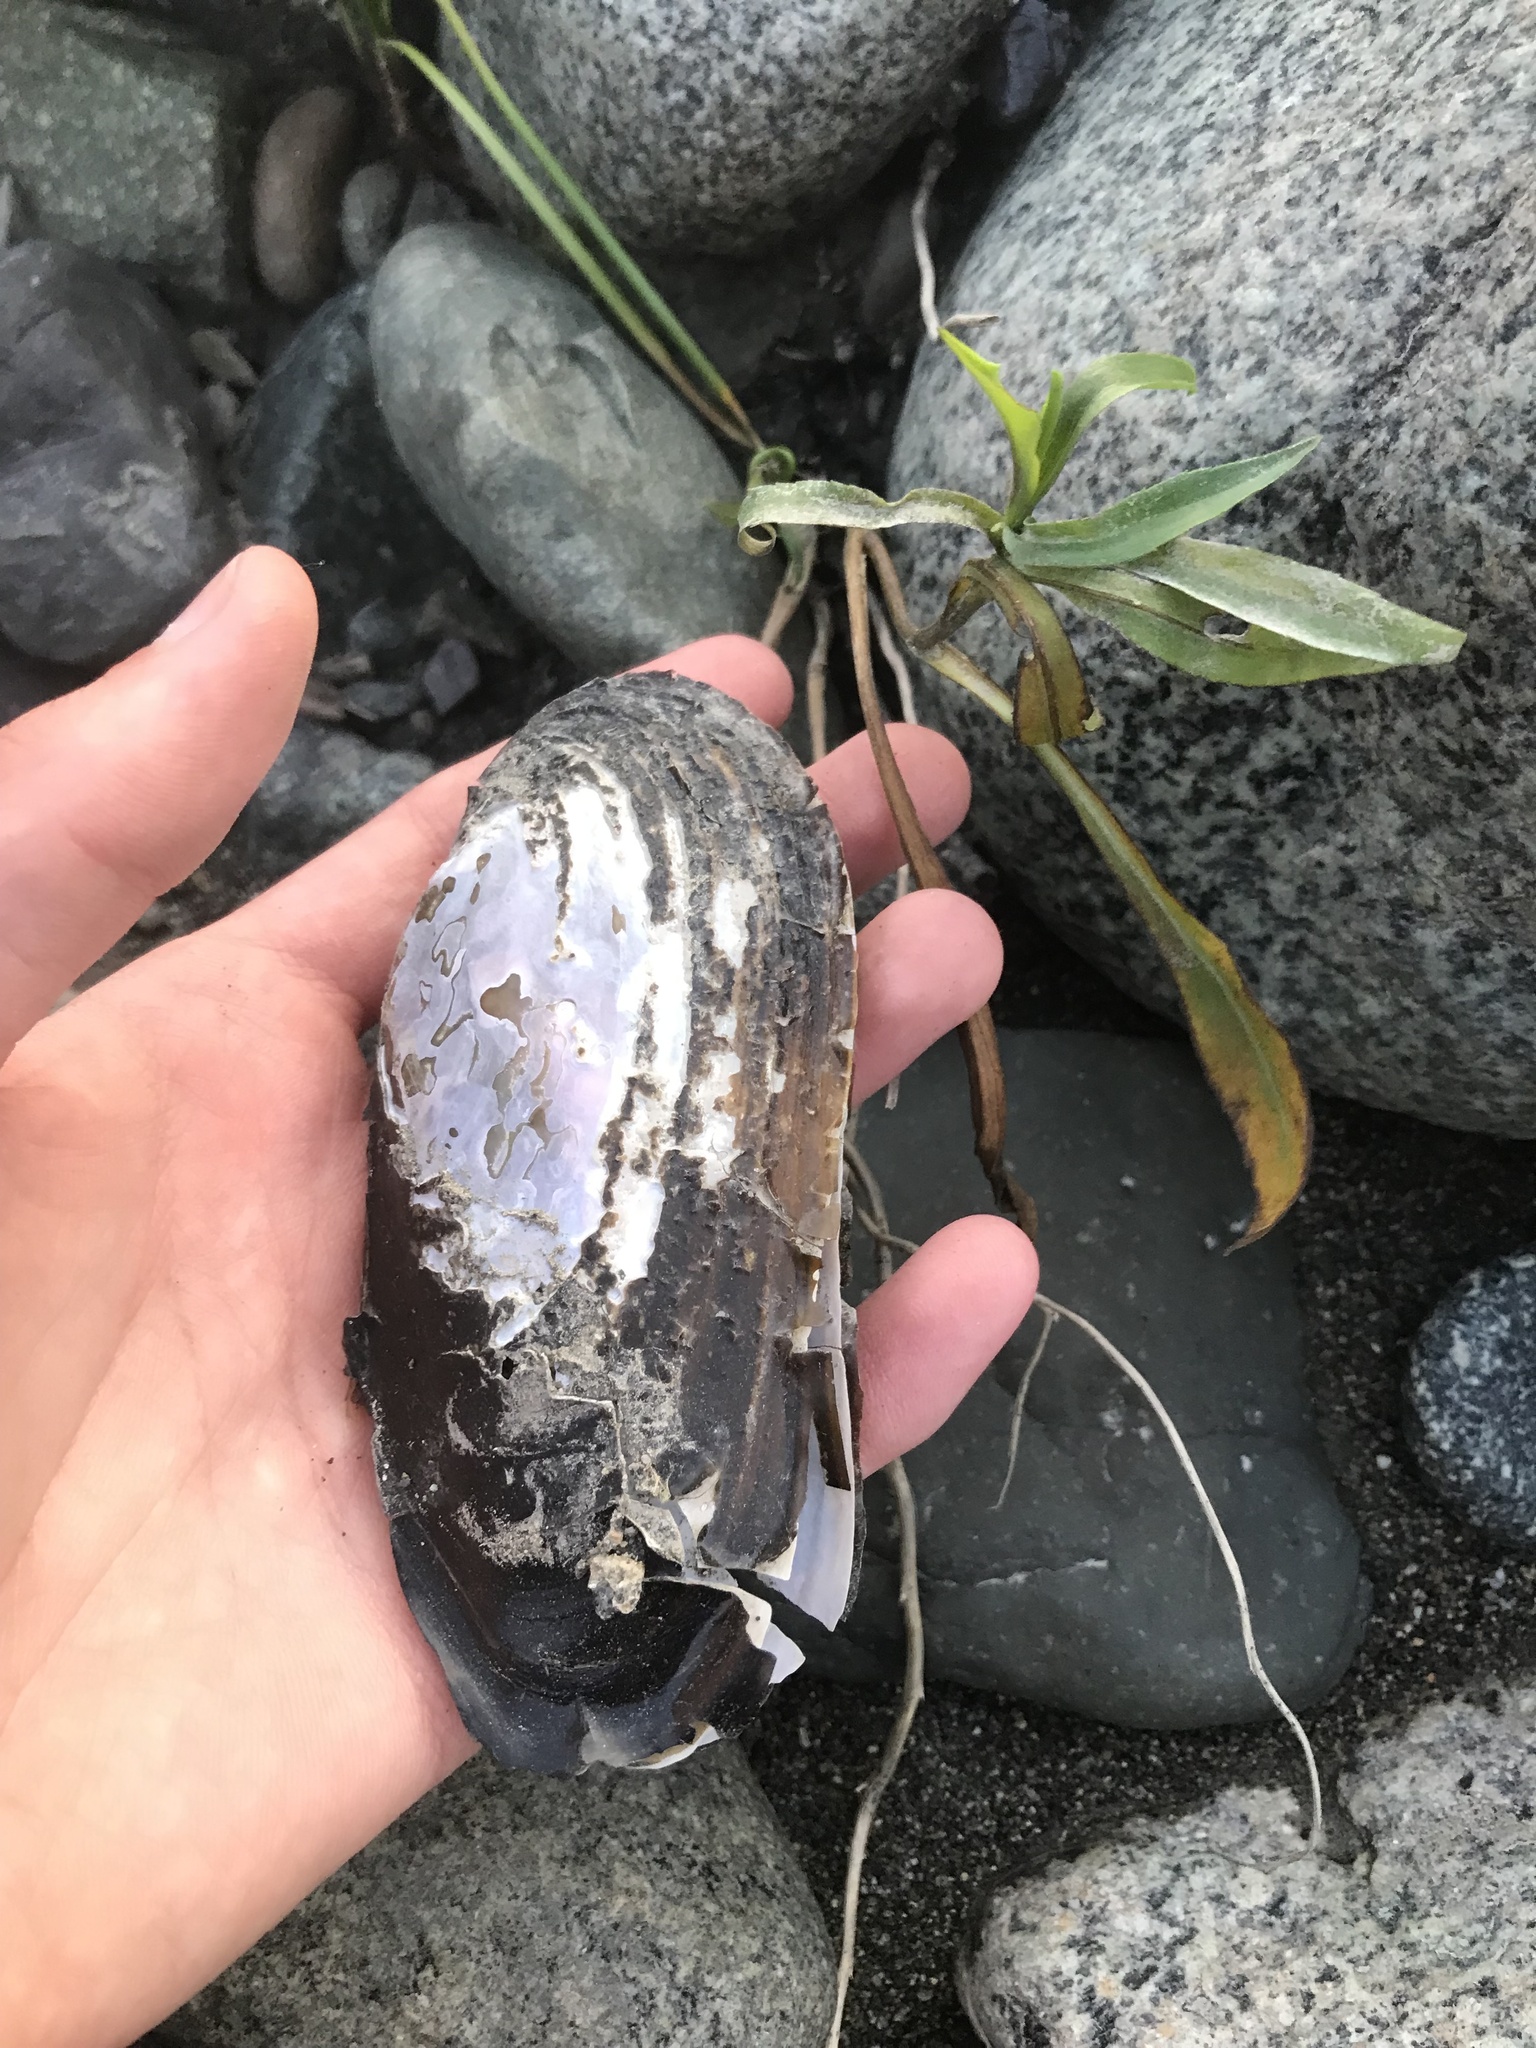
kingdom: Animalia
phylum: Mollusca
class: Bivalvia
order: Unionida
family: Margaritiferidae
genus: Margaritifera
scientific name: Margaritifera falcata
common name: Western pearlshell
